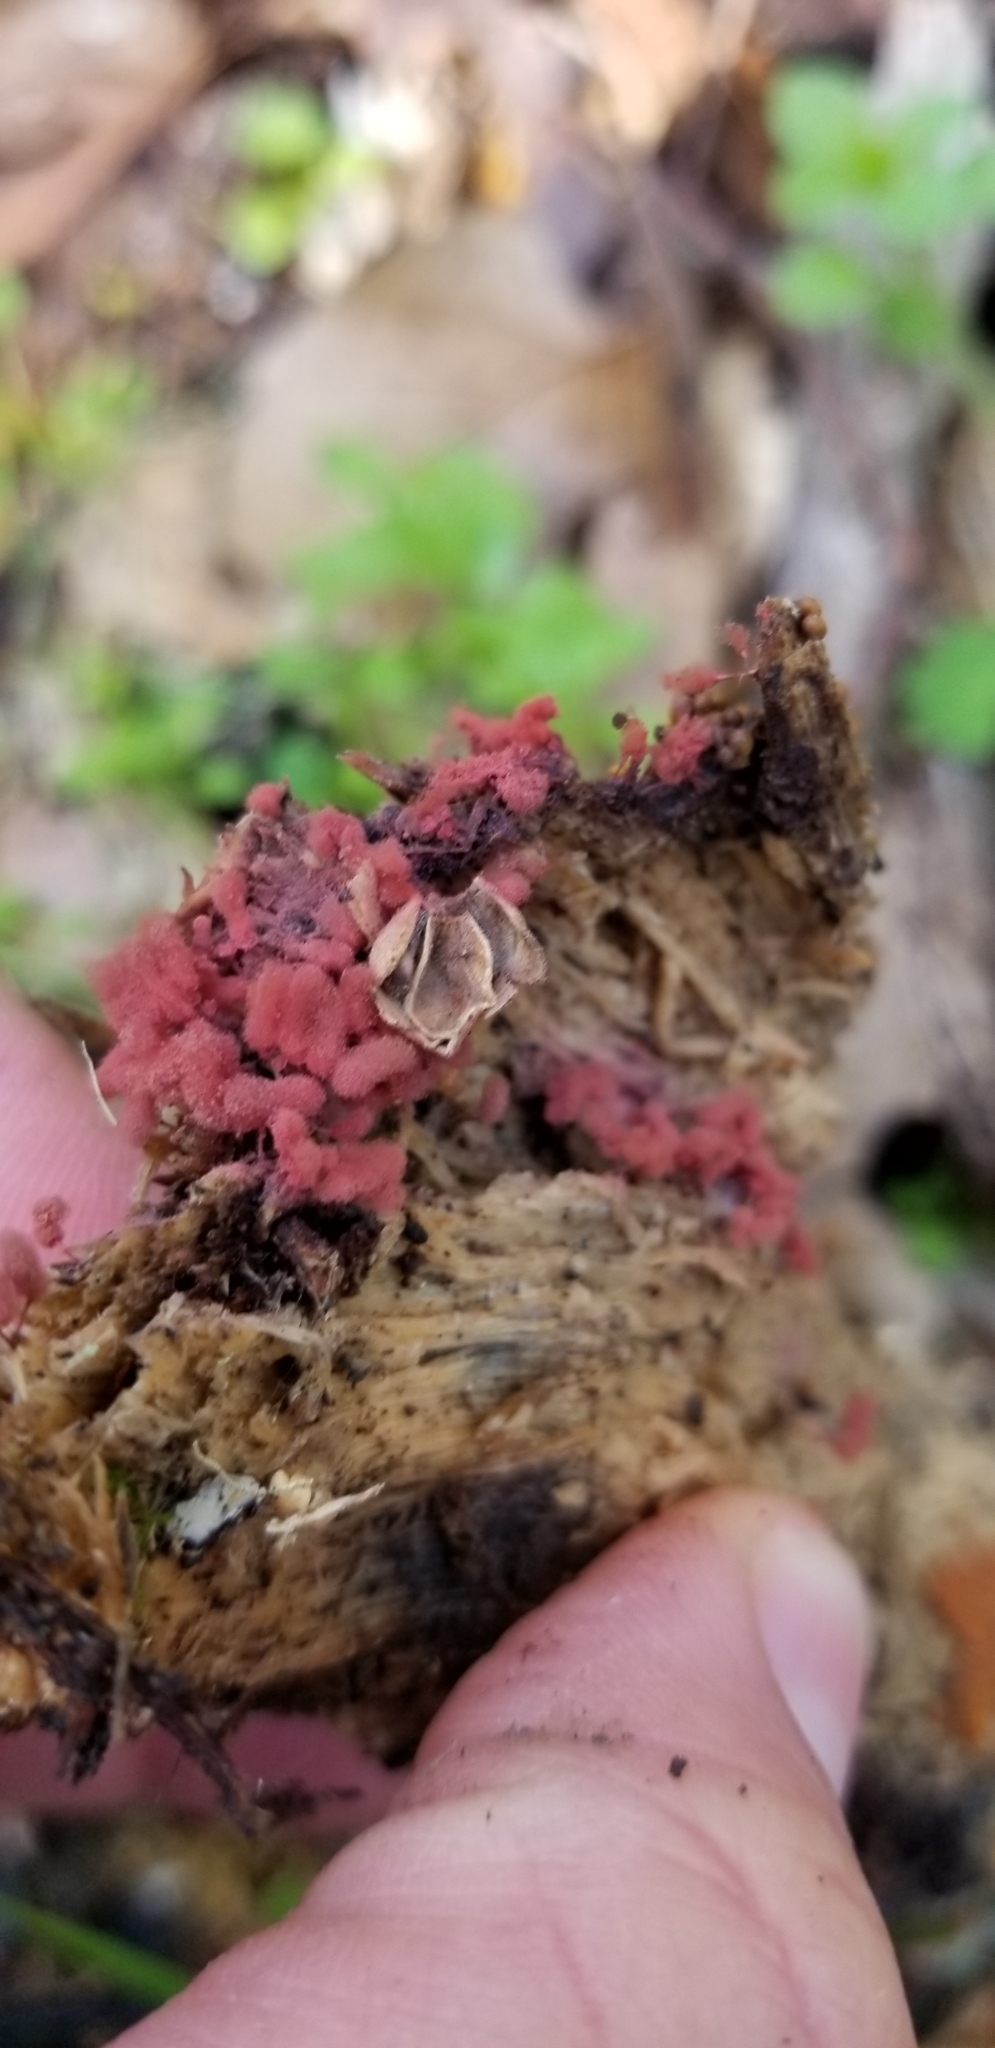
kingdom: Protozoa
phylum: Mycetozoa
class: Myxomycetes
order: Trichiales
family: Arcyriaceae
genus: Arcyria
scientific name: Arcyria denudata
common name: Carnival candy slime mold
